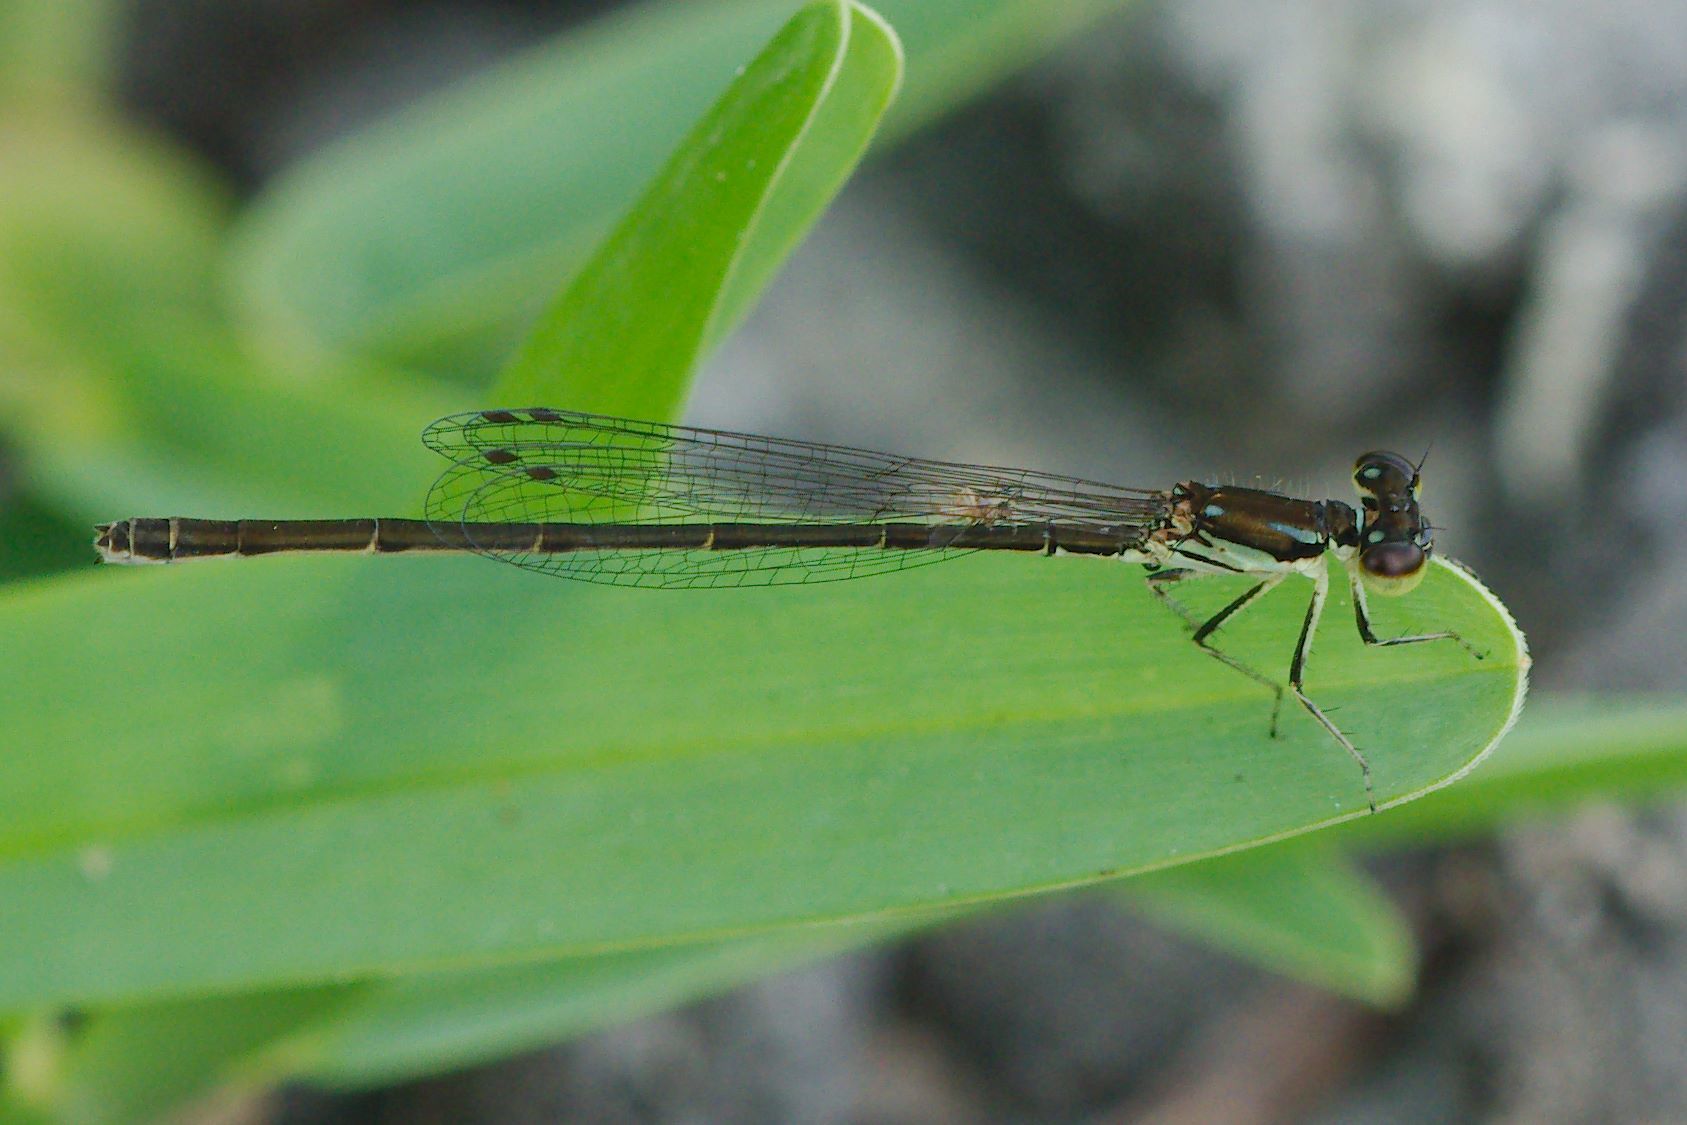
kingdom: Animalia
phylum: Arthropoda
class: Insecta
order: Odonata
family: Coenagrionidae
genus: Ischnura
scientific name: Ischnura posita
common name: Fragile forktail
